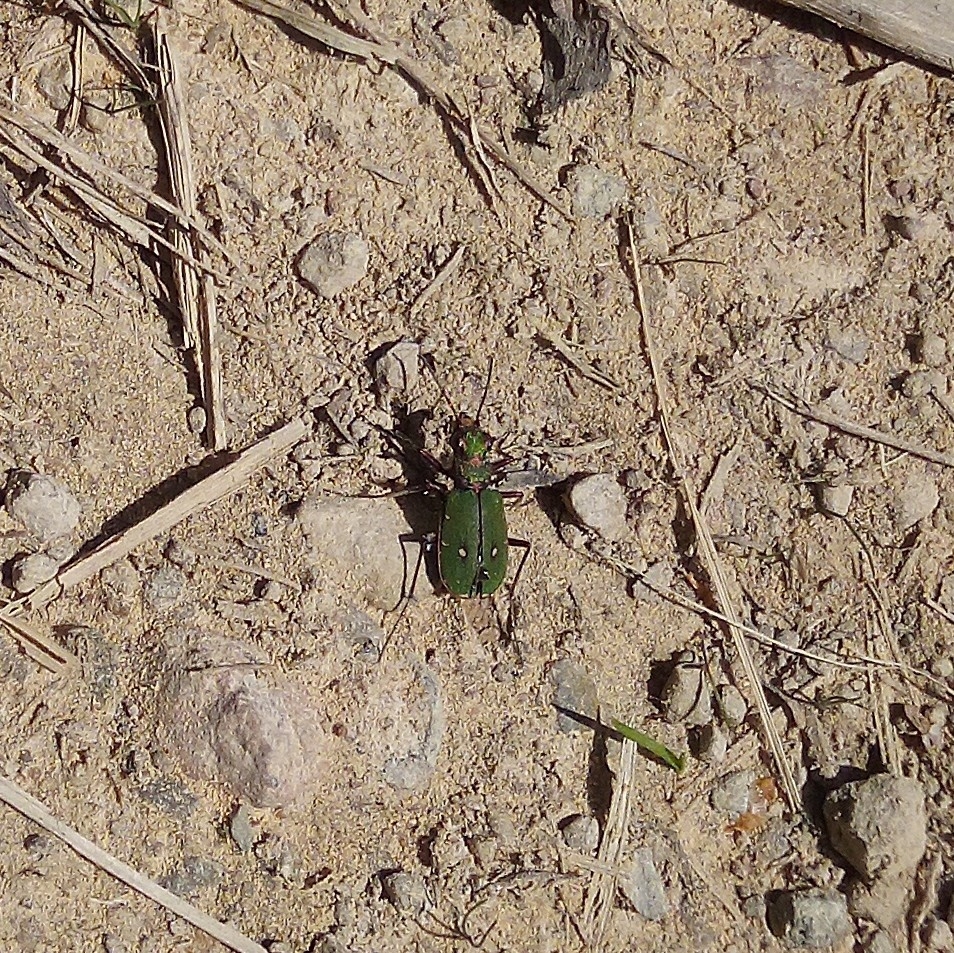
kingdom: Animalia
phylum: Arthropoda
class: Insecta
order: Coleoptera
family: Carabidae
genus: Cicindela
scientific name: Cicindela campestris
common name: Common tiger beetle
